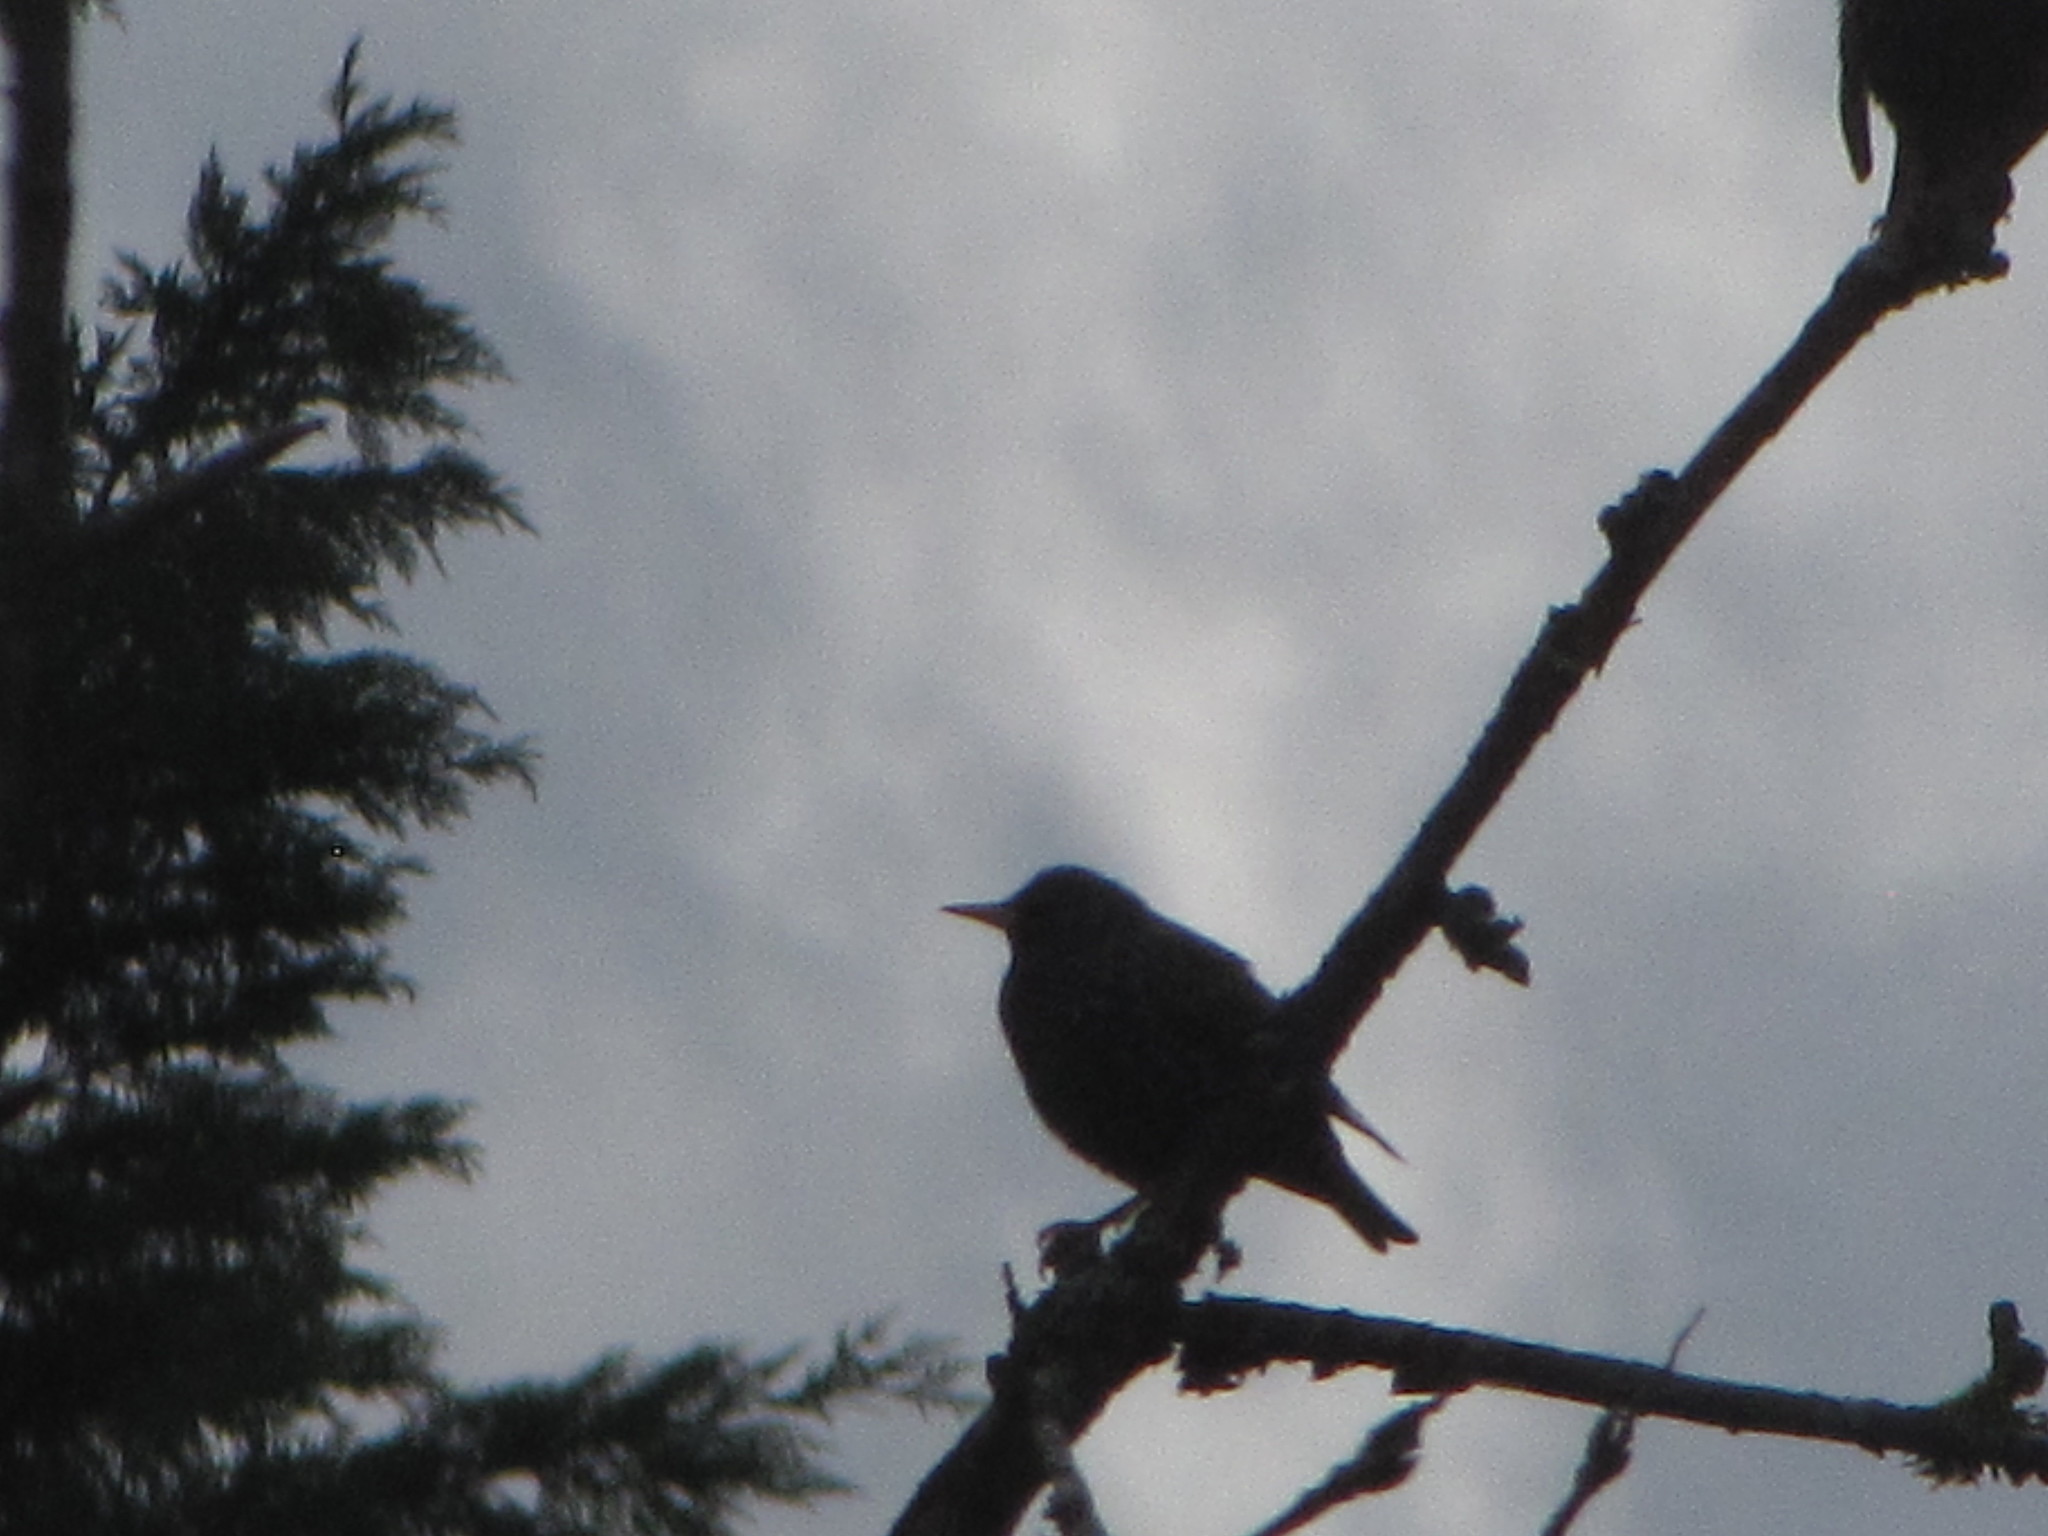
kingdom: Animalia
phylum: Chordata
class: Aves
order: Passeriformes
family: Sturnidae
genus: Sturnus
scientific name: Sturnus vulgaris
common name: Common starling
